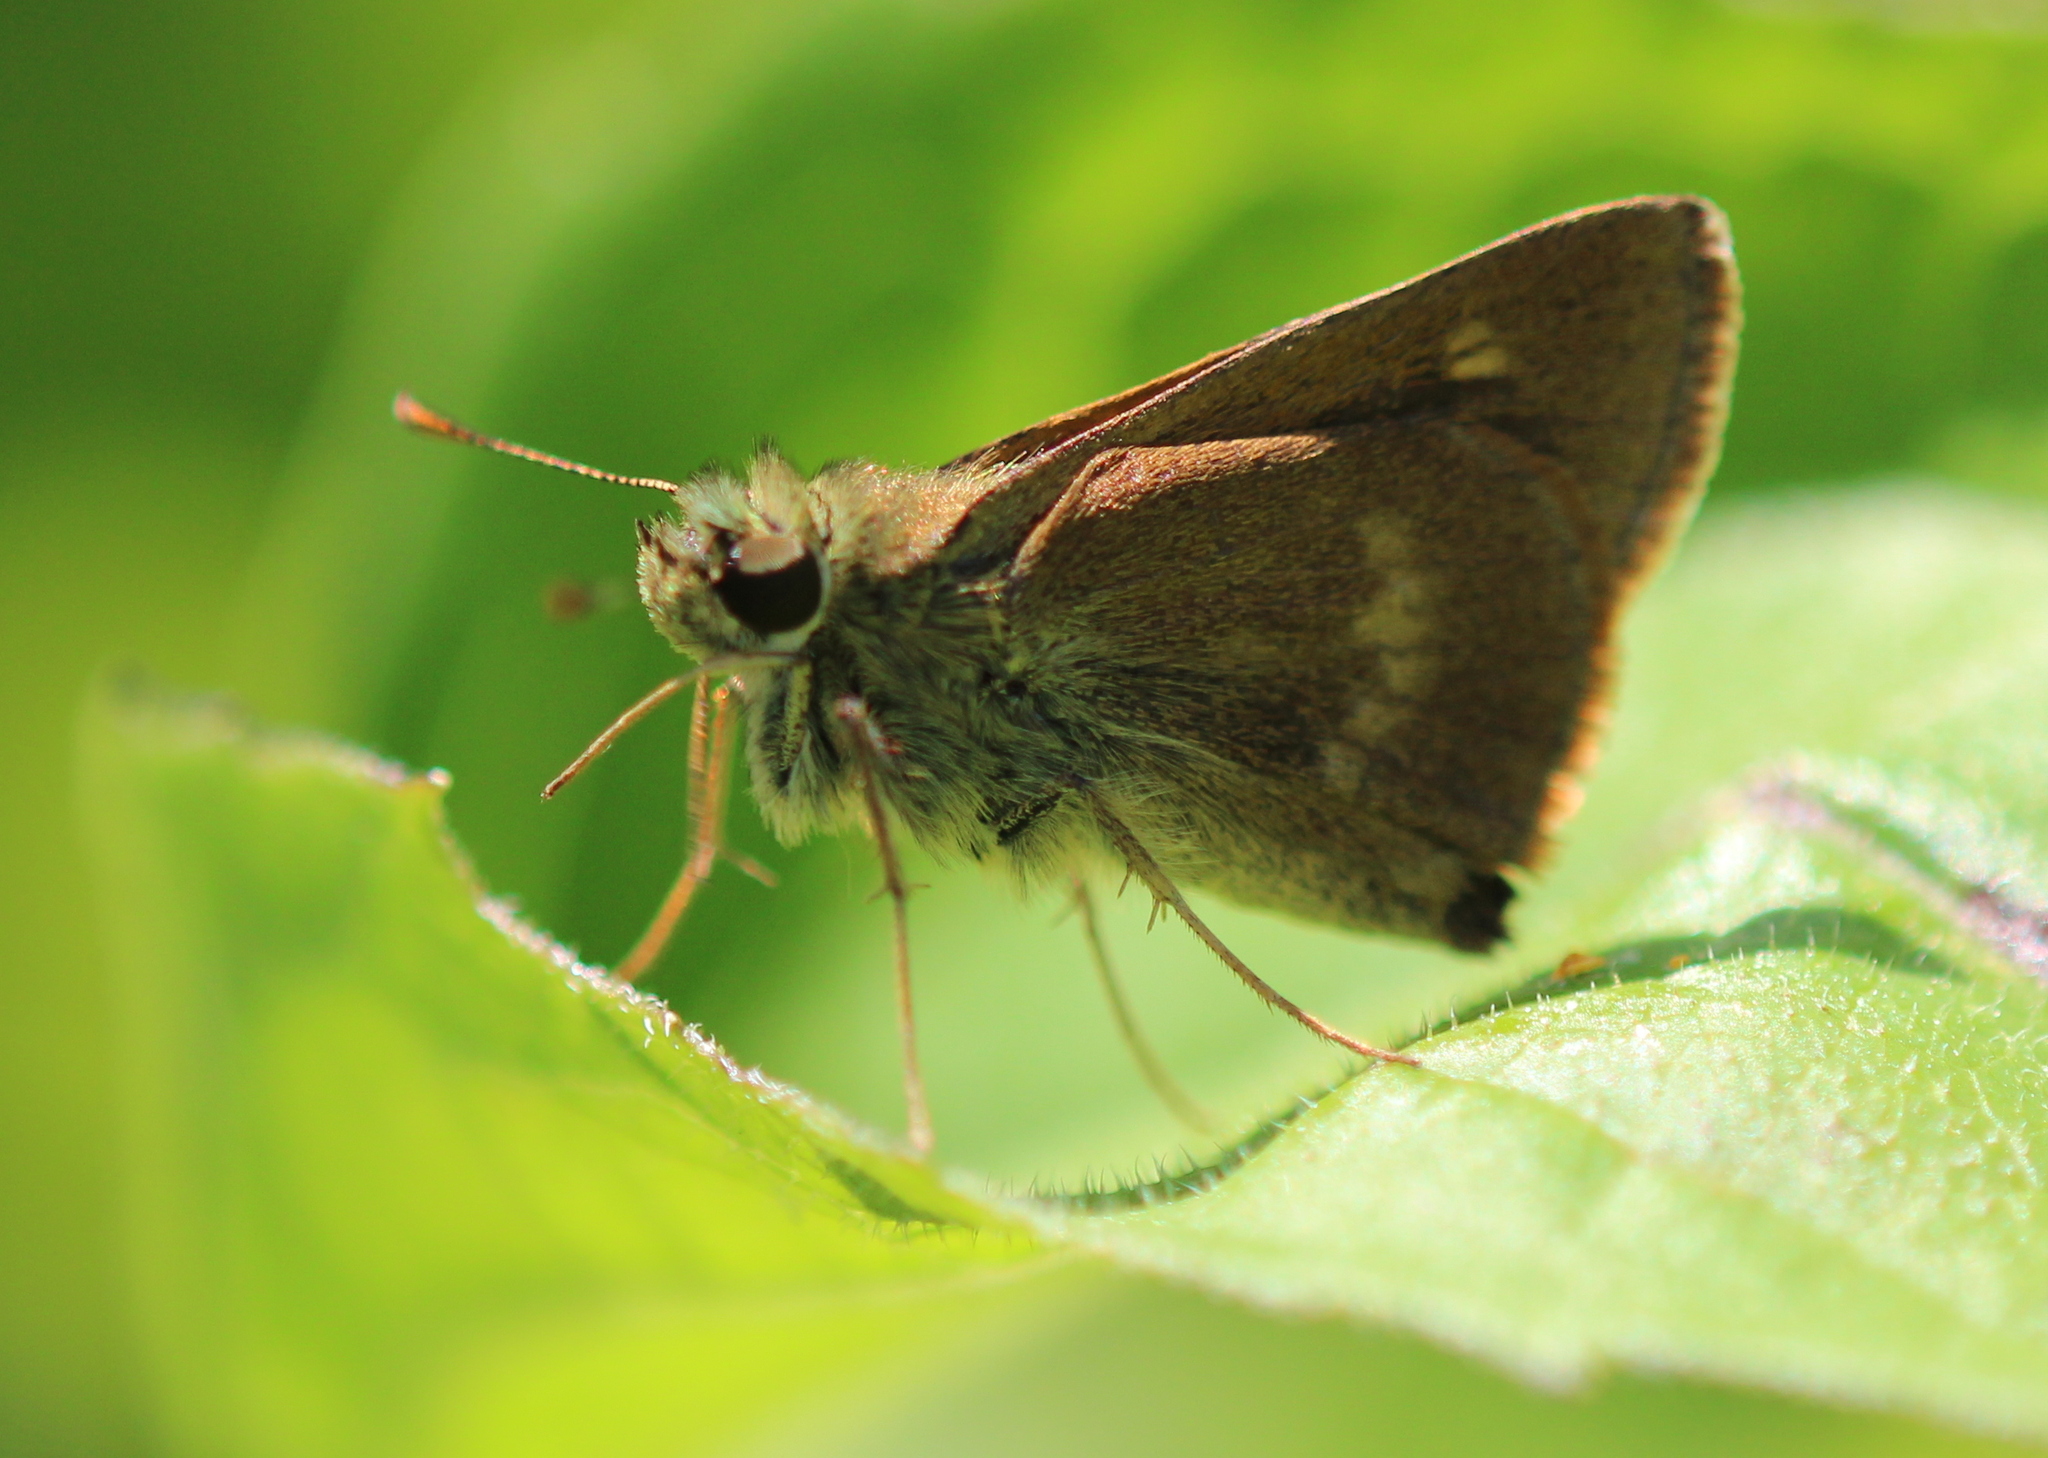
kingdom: Animalia
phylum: Arthropoda
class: Insecta
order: Lepidoptera
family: Hesperiidae
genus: Polites
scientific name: Polites egeremet
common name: Northern broken-dash
